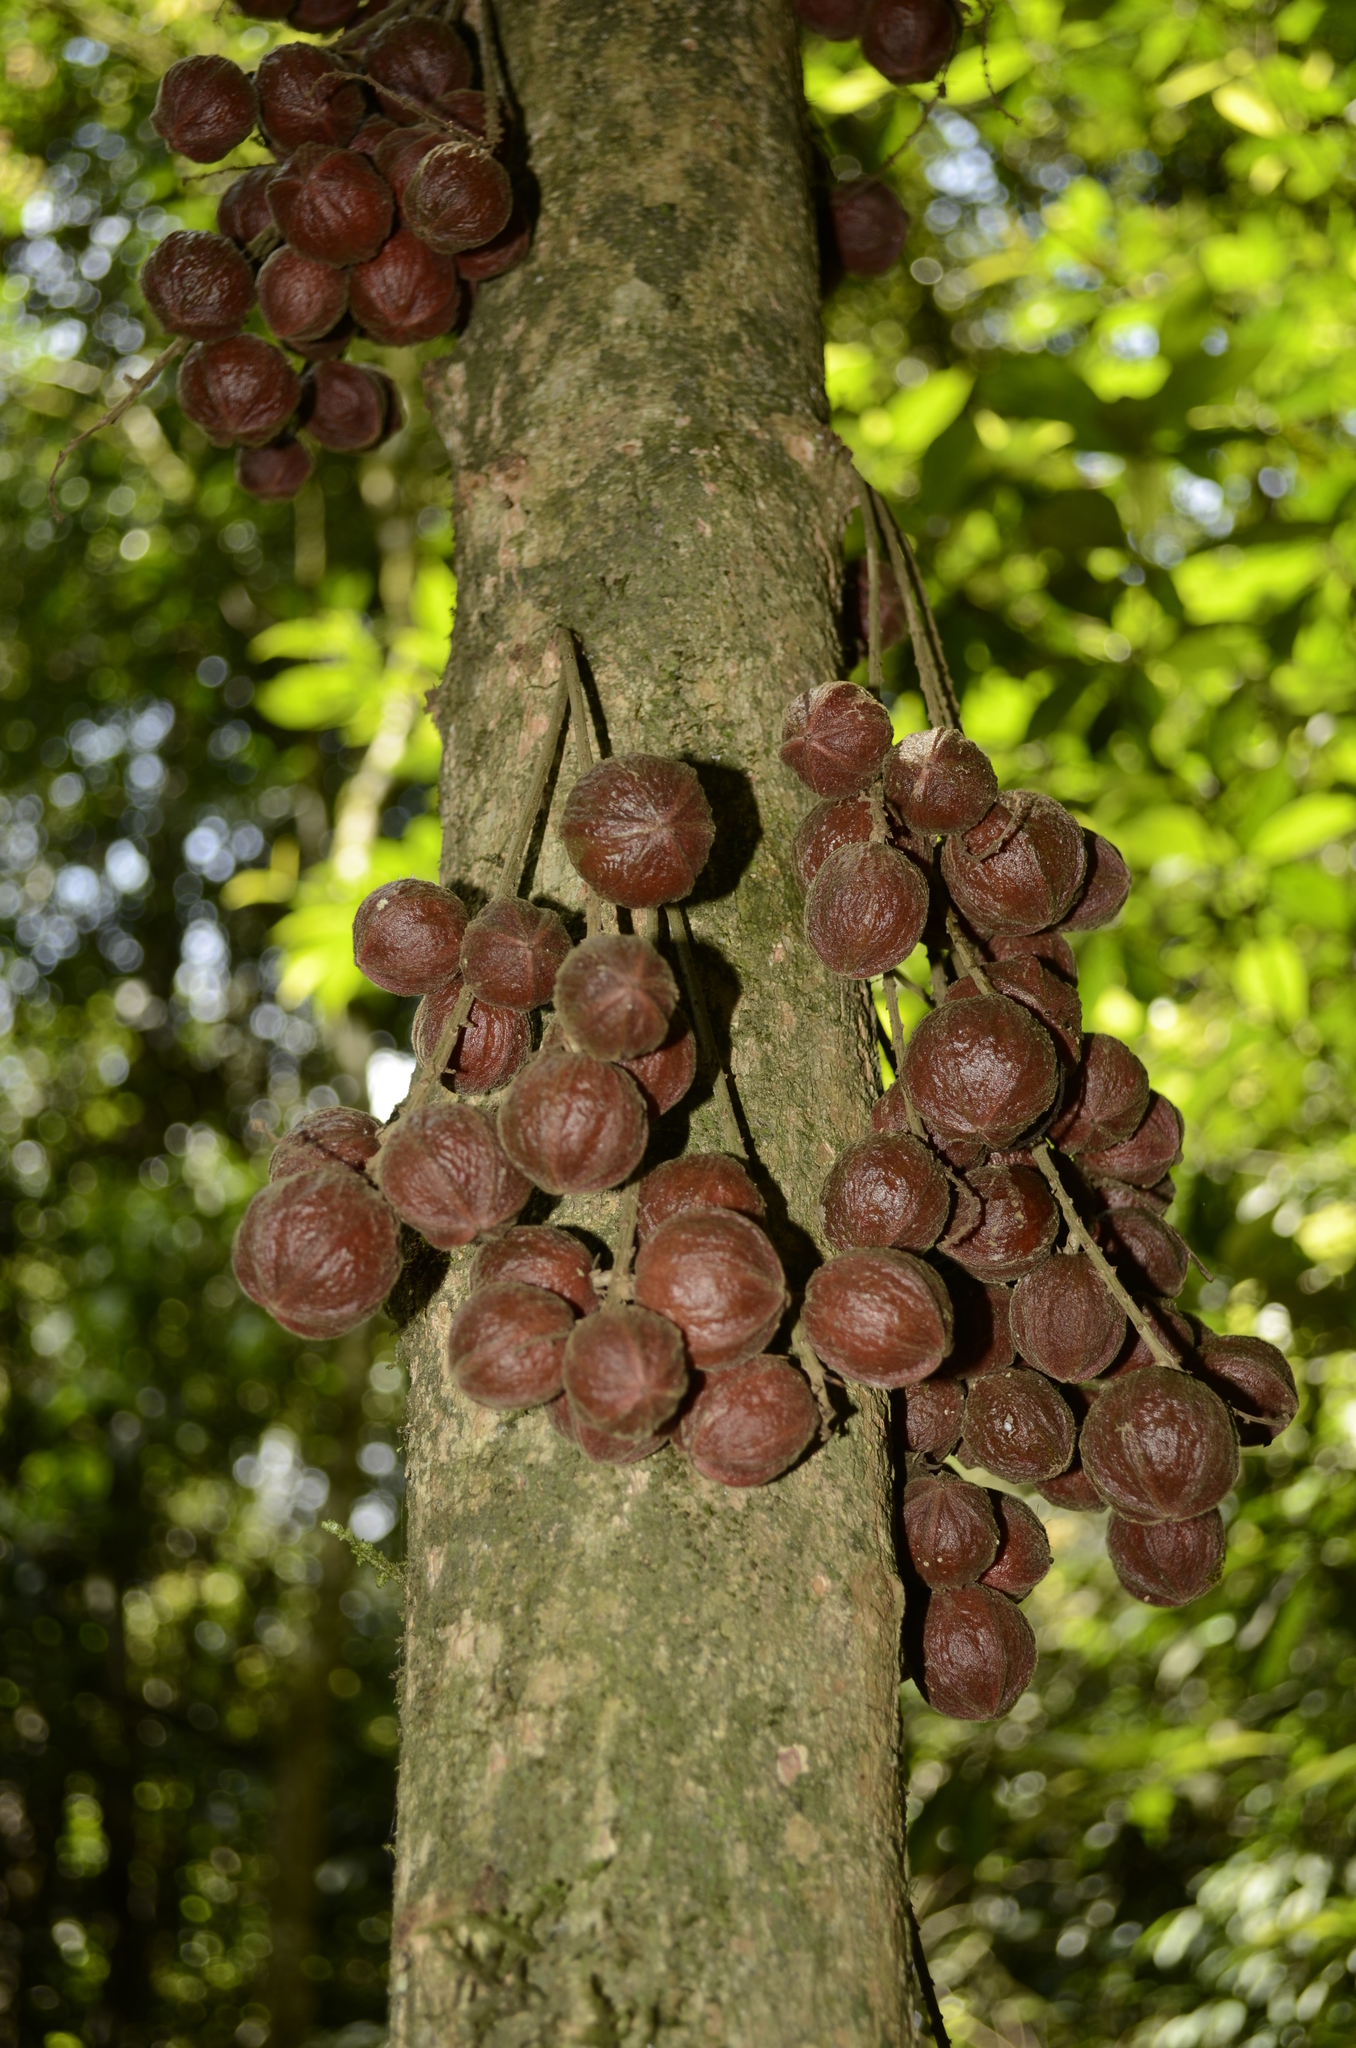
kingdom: Plantae
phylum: Tracheophyta
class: Magnoliopsida
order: Malpighiales
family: Phyllanthaceae
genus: Baccaurea
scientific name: Baccaurea courtallensis
